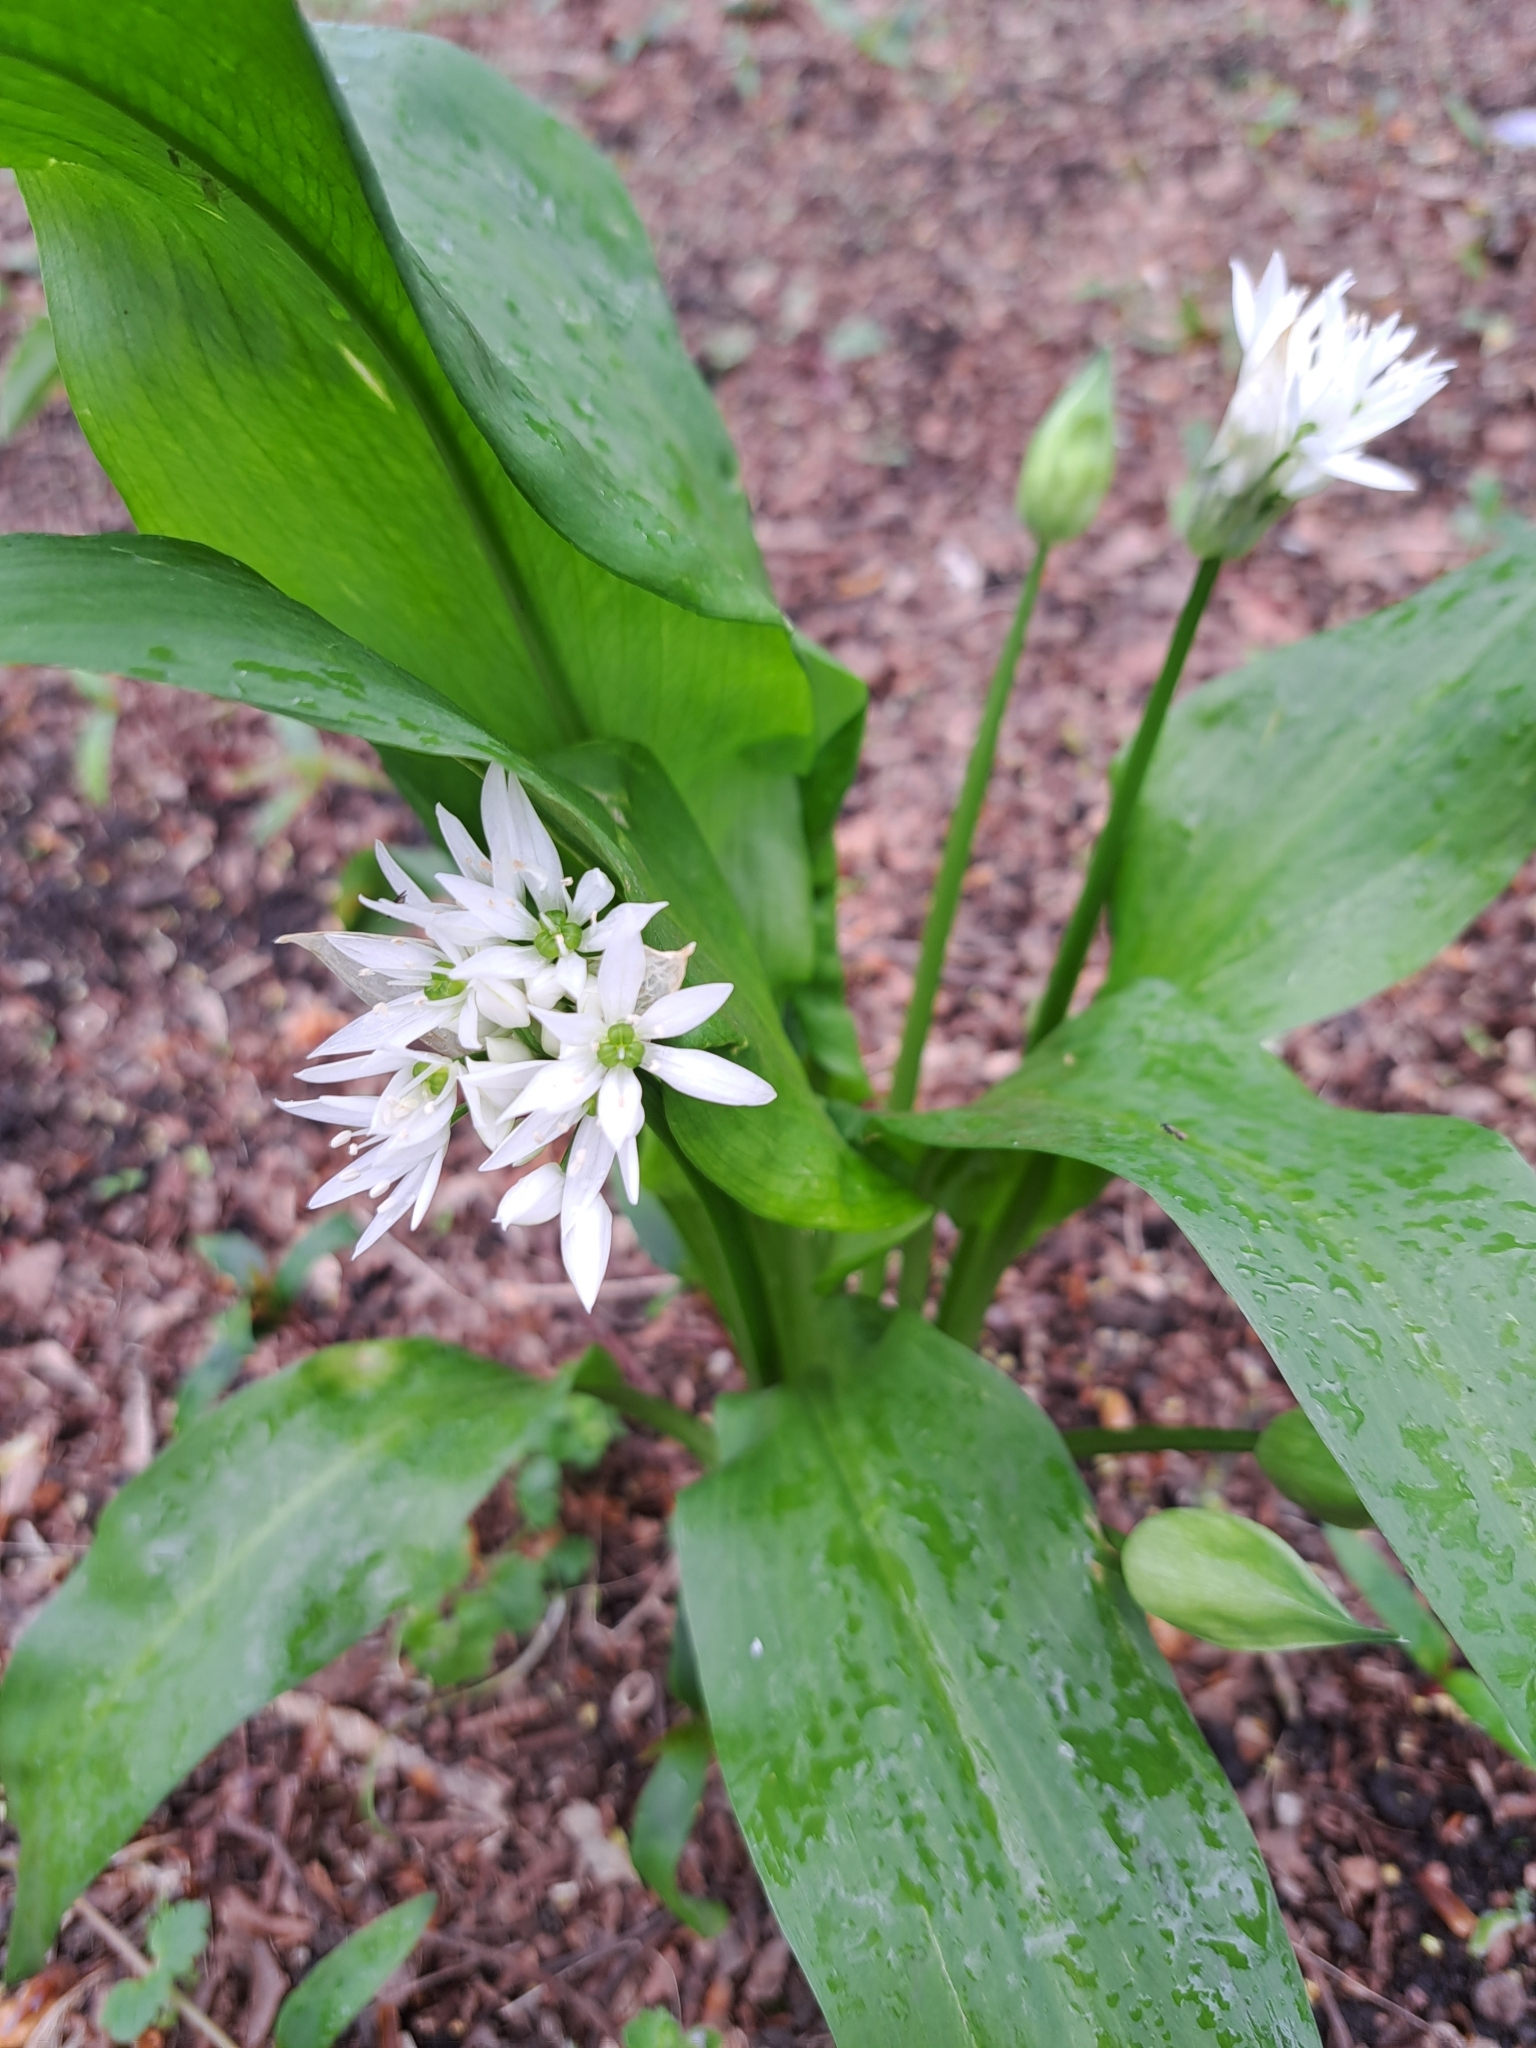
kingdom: Plantae
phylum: Tracheophyta
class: Liliopsida
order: Asparagales
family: Amaryllidaceae
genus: Allium
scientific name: Allium ursinum
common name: Ramsons
